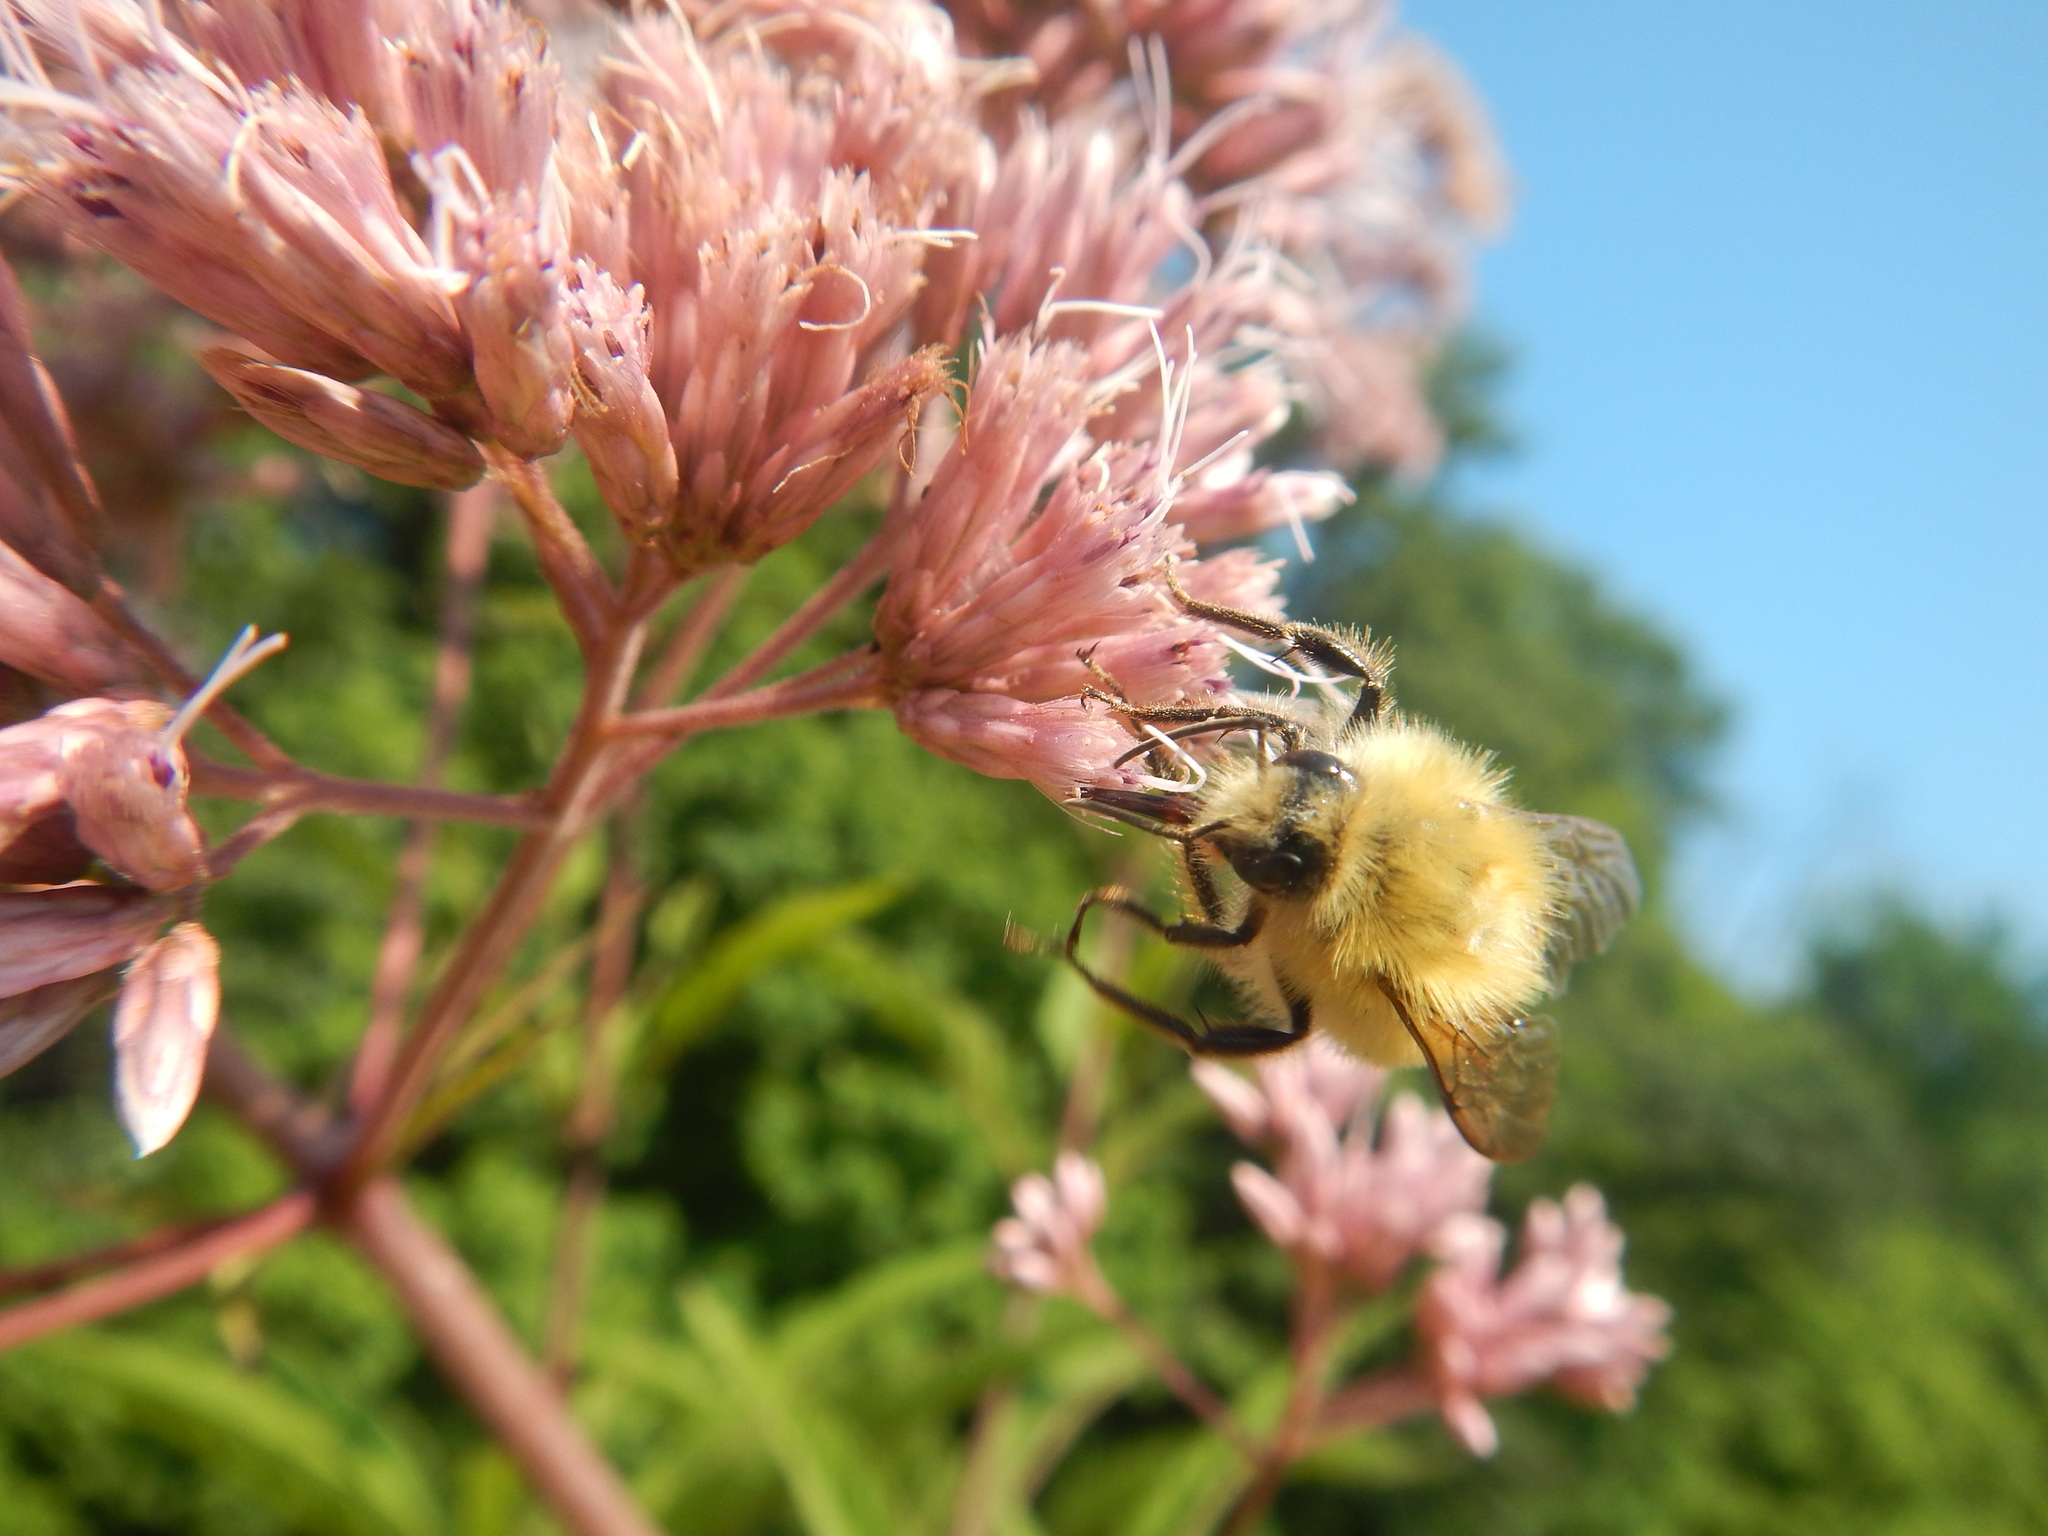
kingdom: Animalia
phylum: Arthropoda
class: Insecta
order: Hymenoptera
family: Apidae
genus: Bombus
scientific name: Bombus perplexus
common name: Confusing bumble bee
